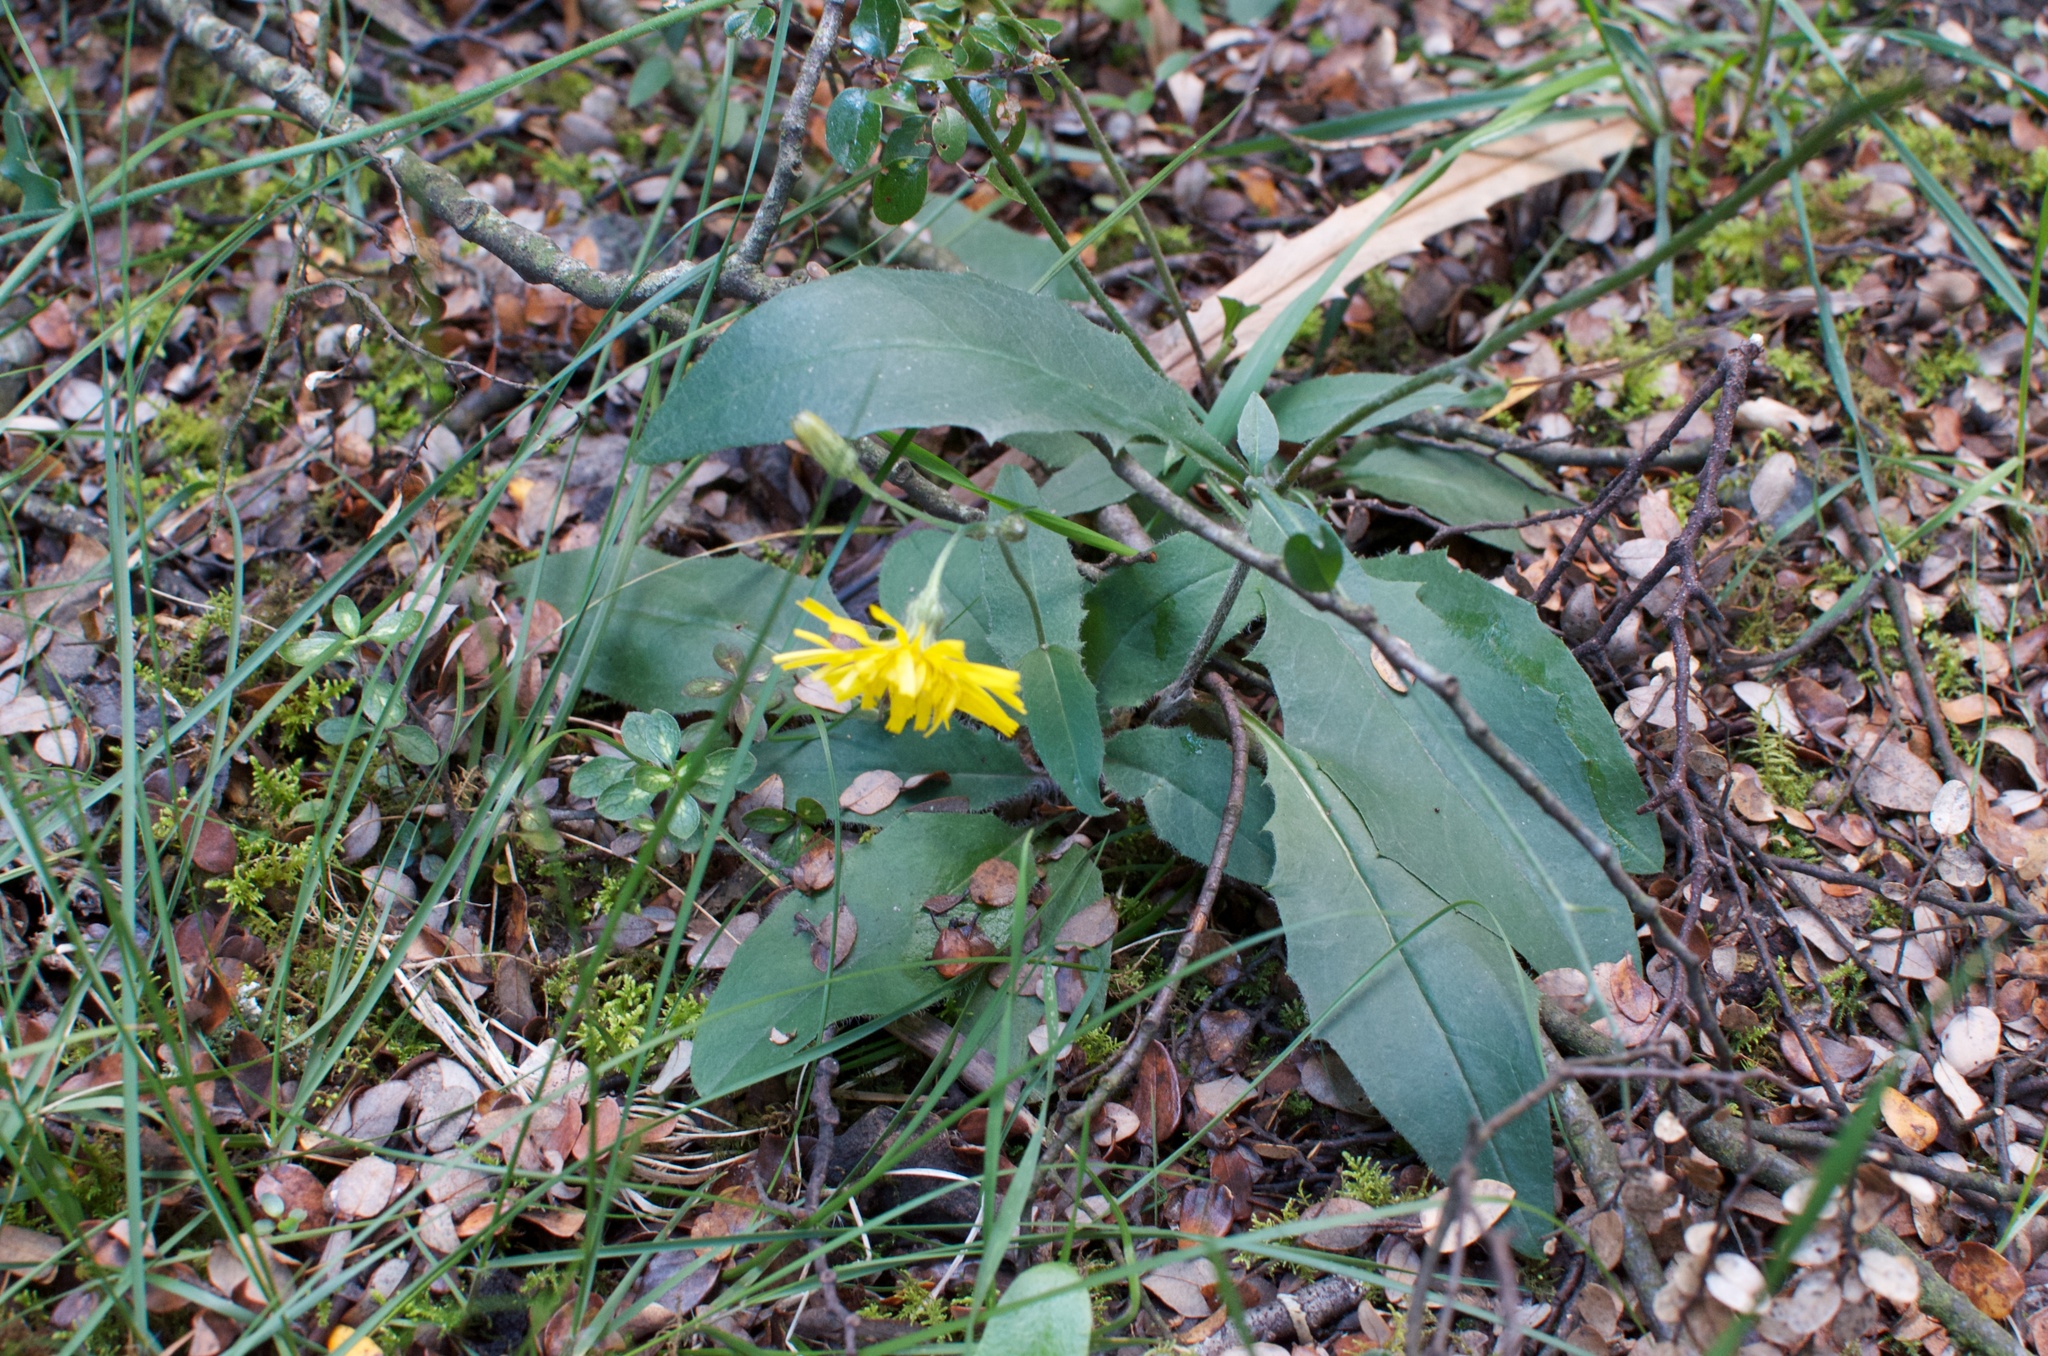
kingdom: Plantae
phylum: Tracheophyta
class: Magnoliopsida
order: Oxalidales
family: Elaeocarpaceae
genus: Aristotelia
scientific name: Aristotelia
